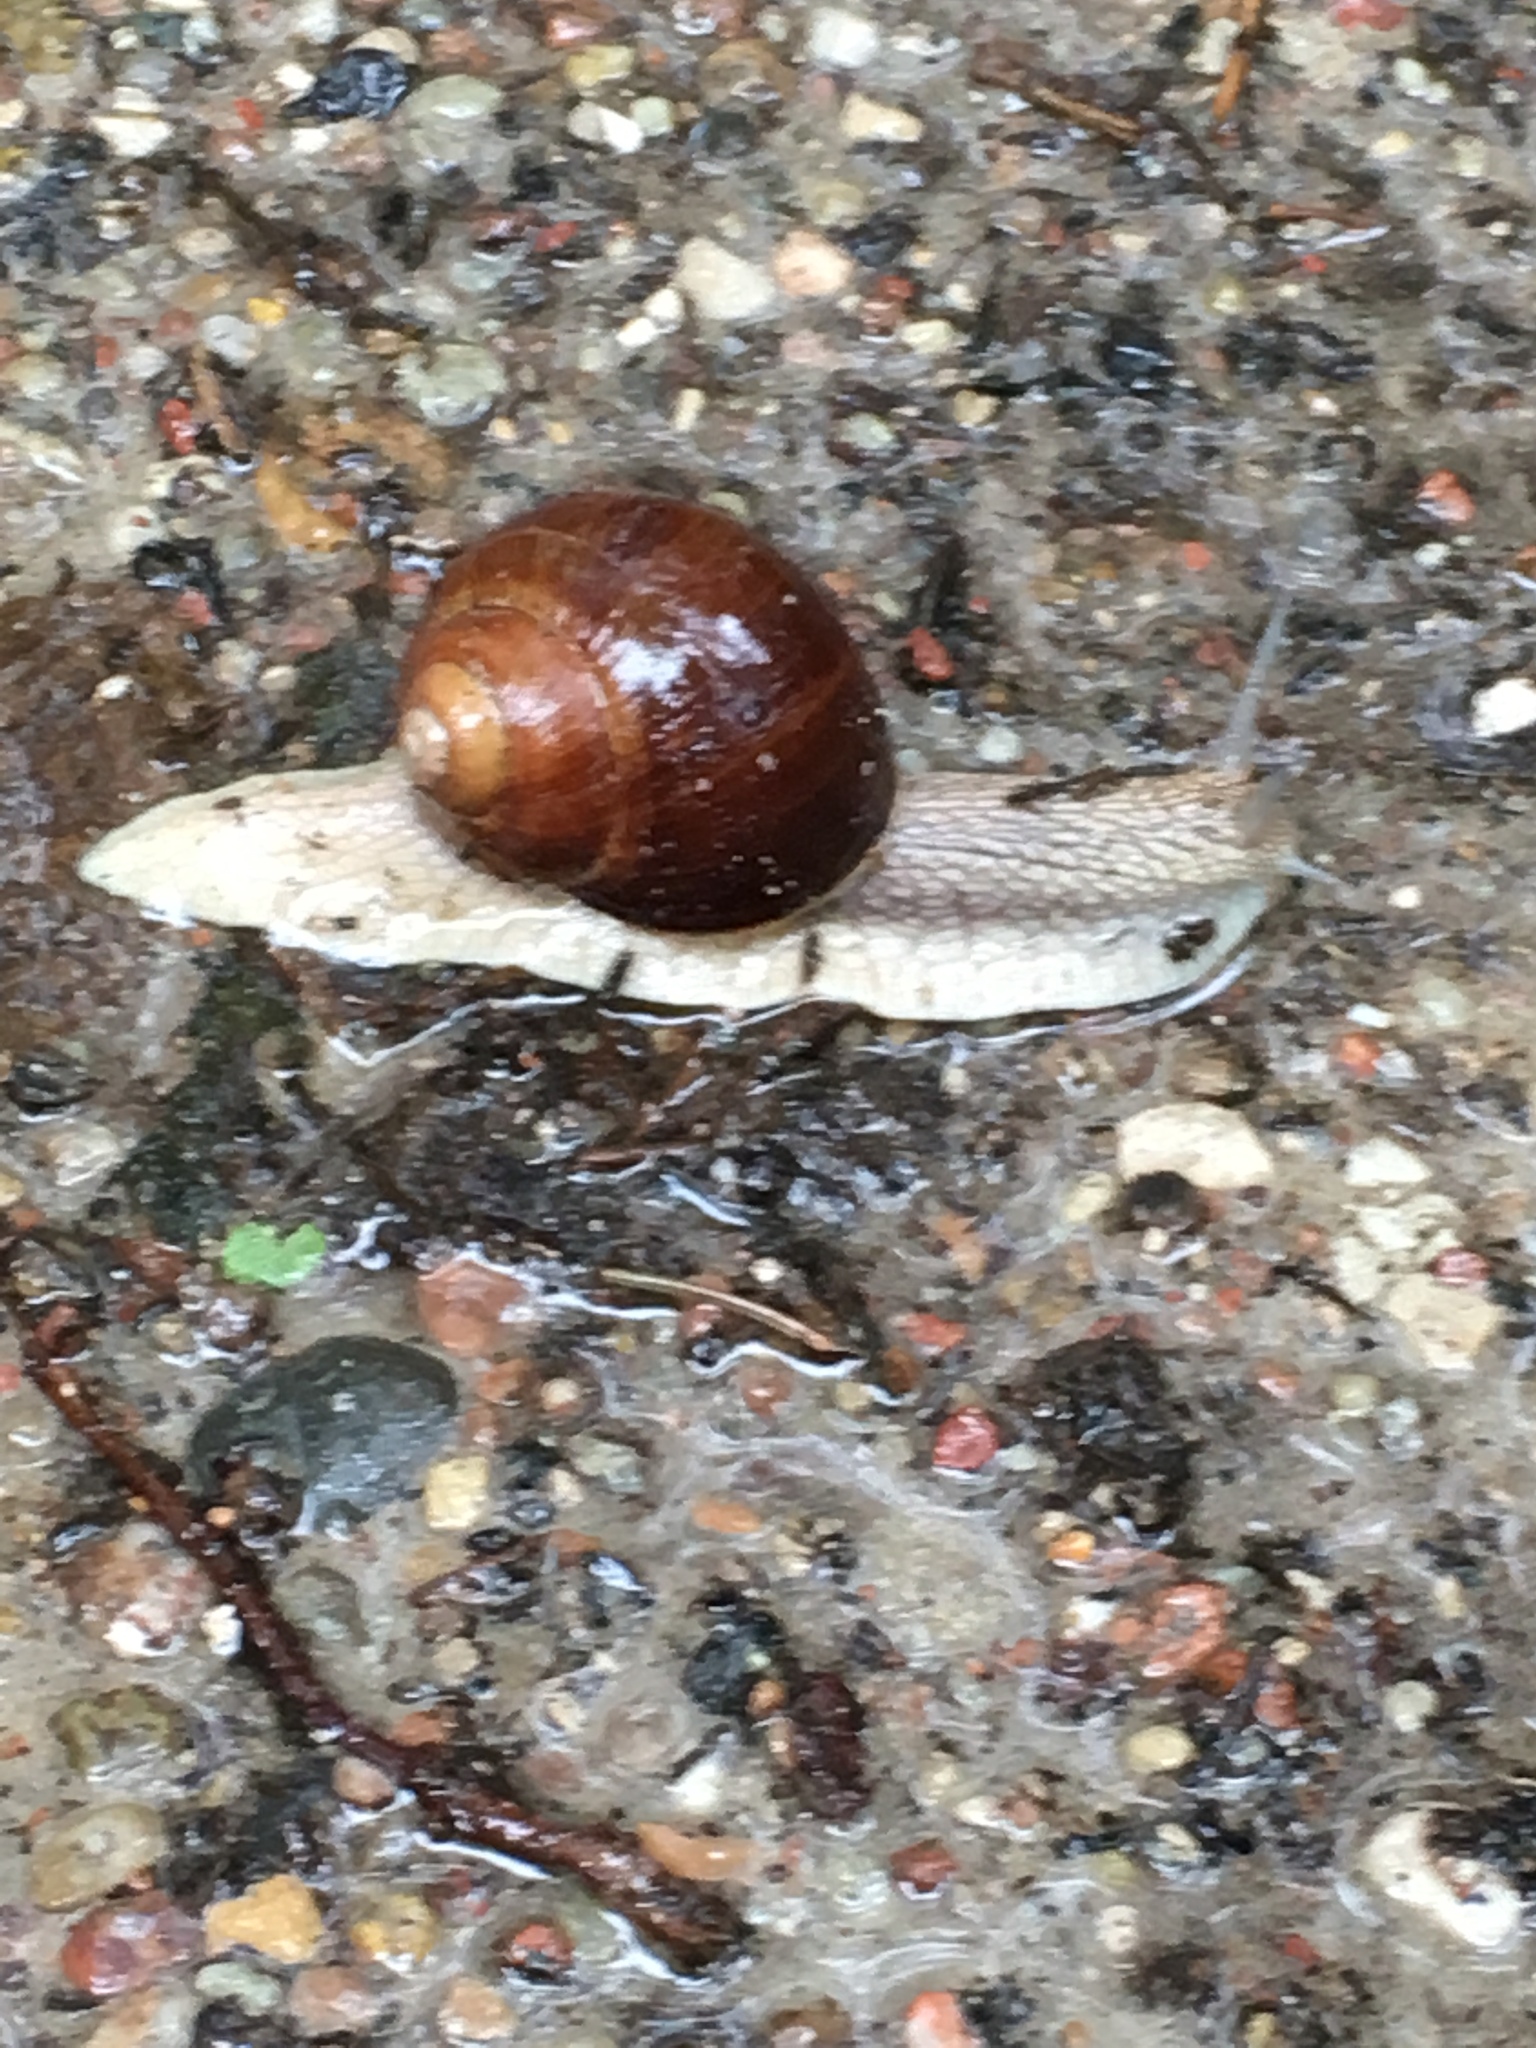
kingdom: Animalia
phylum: Mollusca
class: Gastropoda
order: Stylommatophora
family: Helicidae
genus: Helix
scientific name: Helix pomatia
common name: Roman snail
